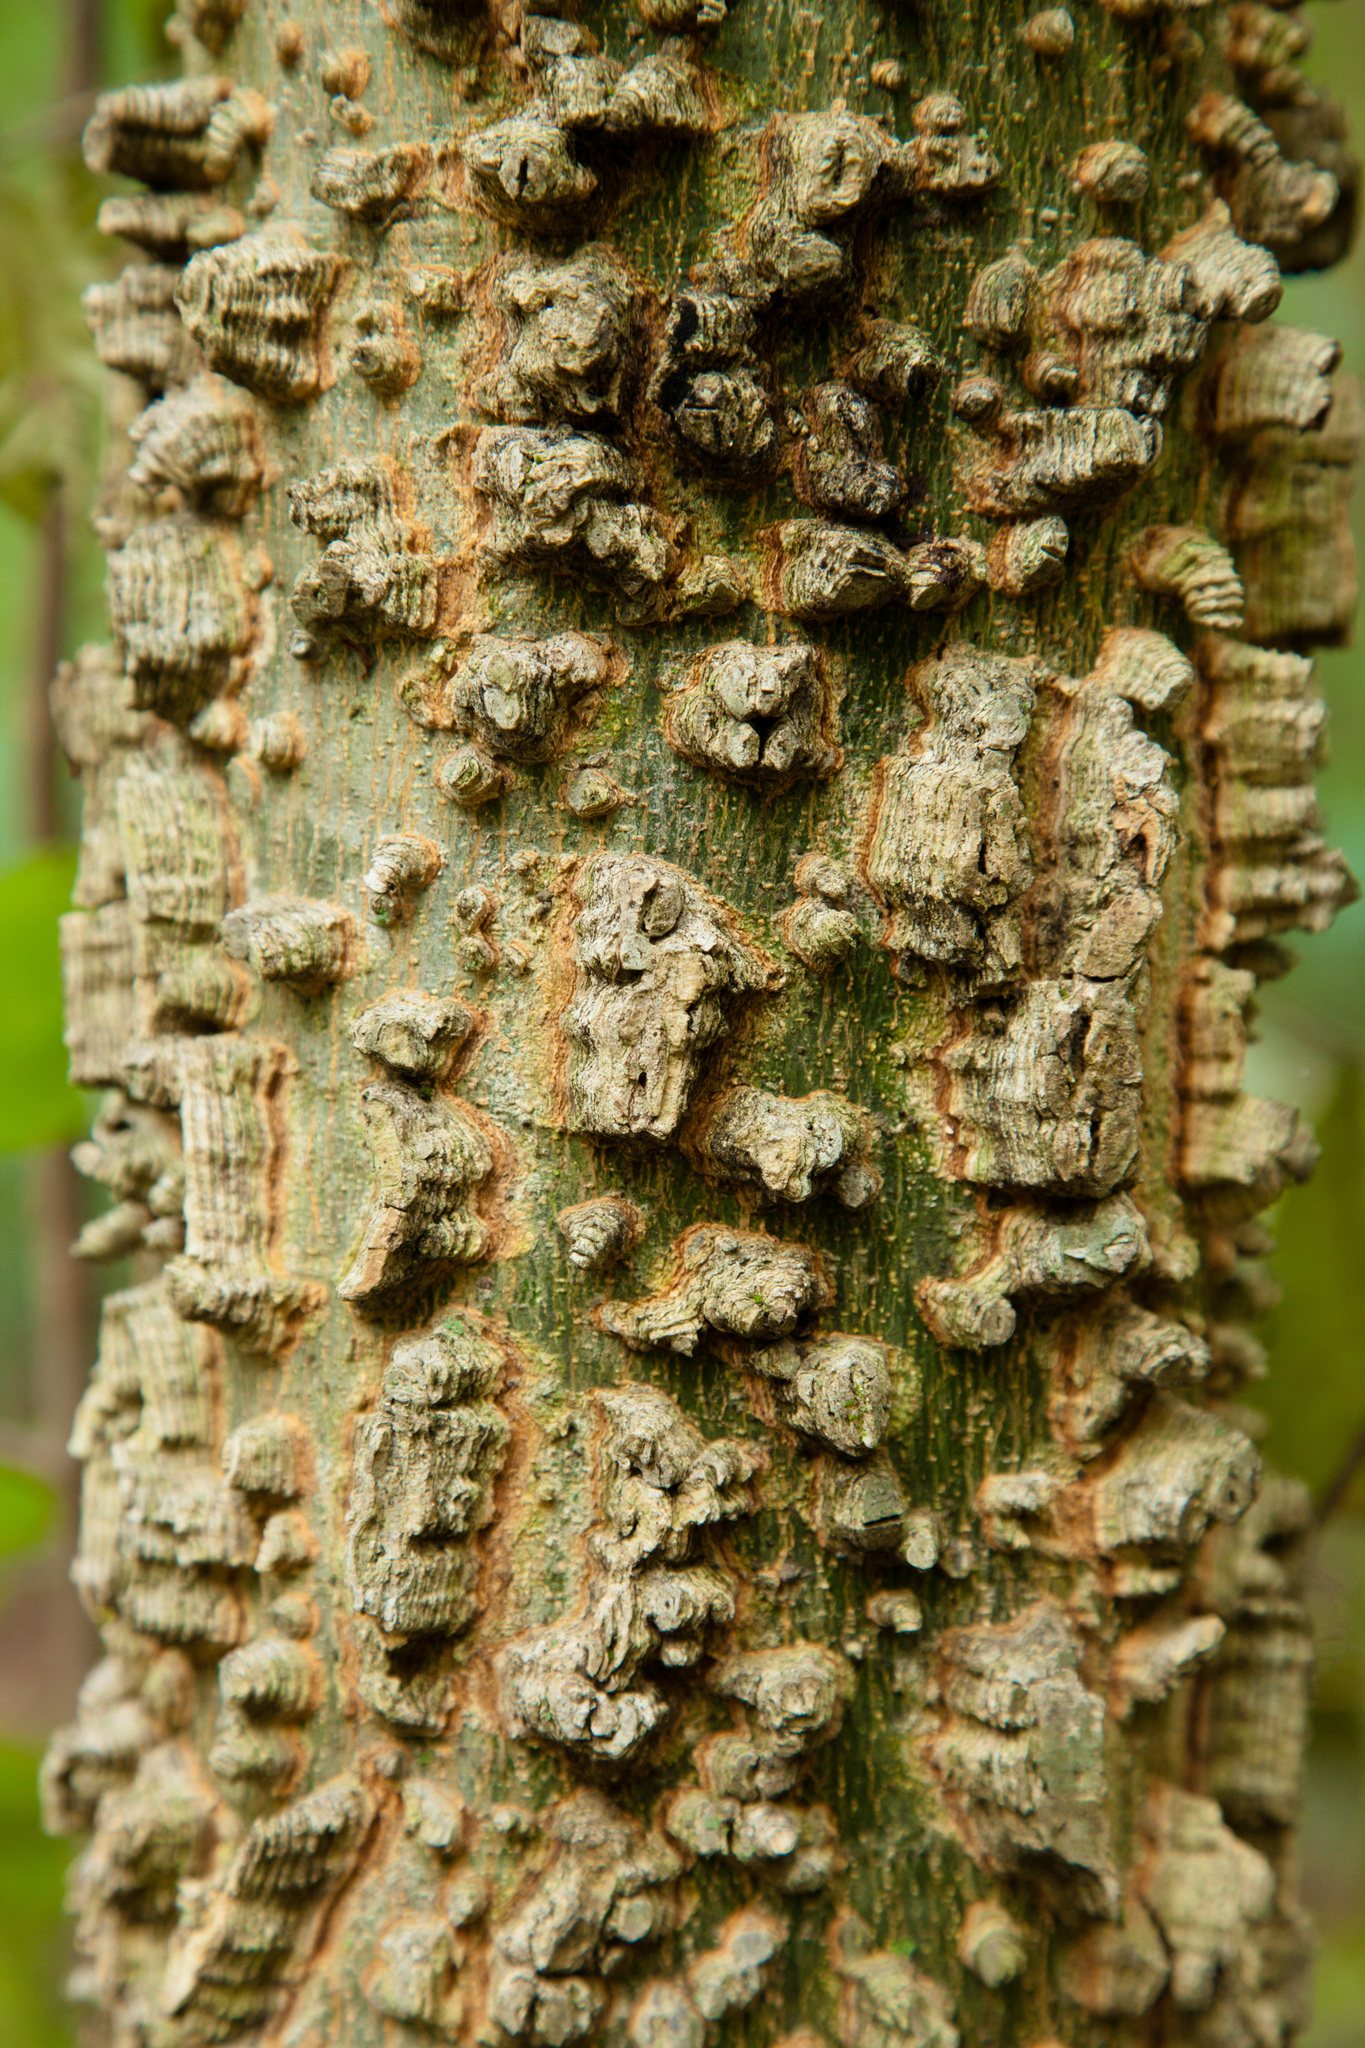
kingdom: Plantae
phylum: Tracheophyta
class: Magnoliopsida
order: Rosales
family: Cannabaceae
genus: Celtis
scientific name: Celtis laevigata
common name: Sugarberry
